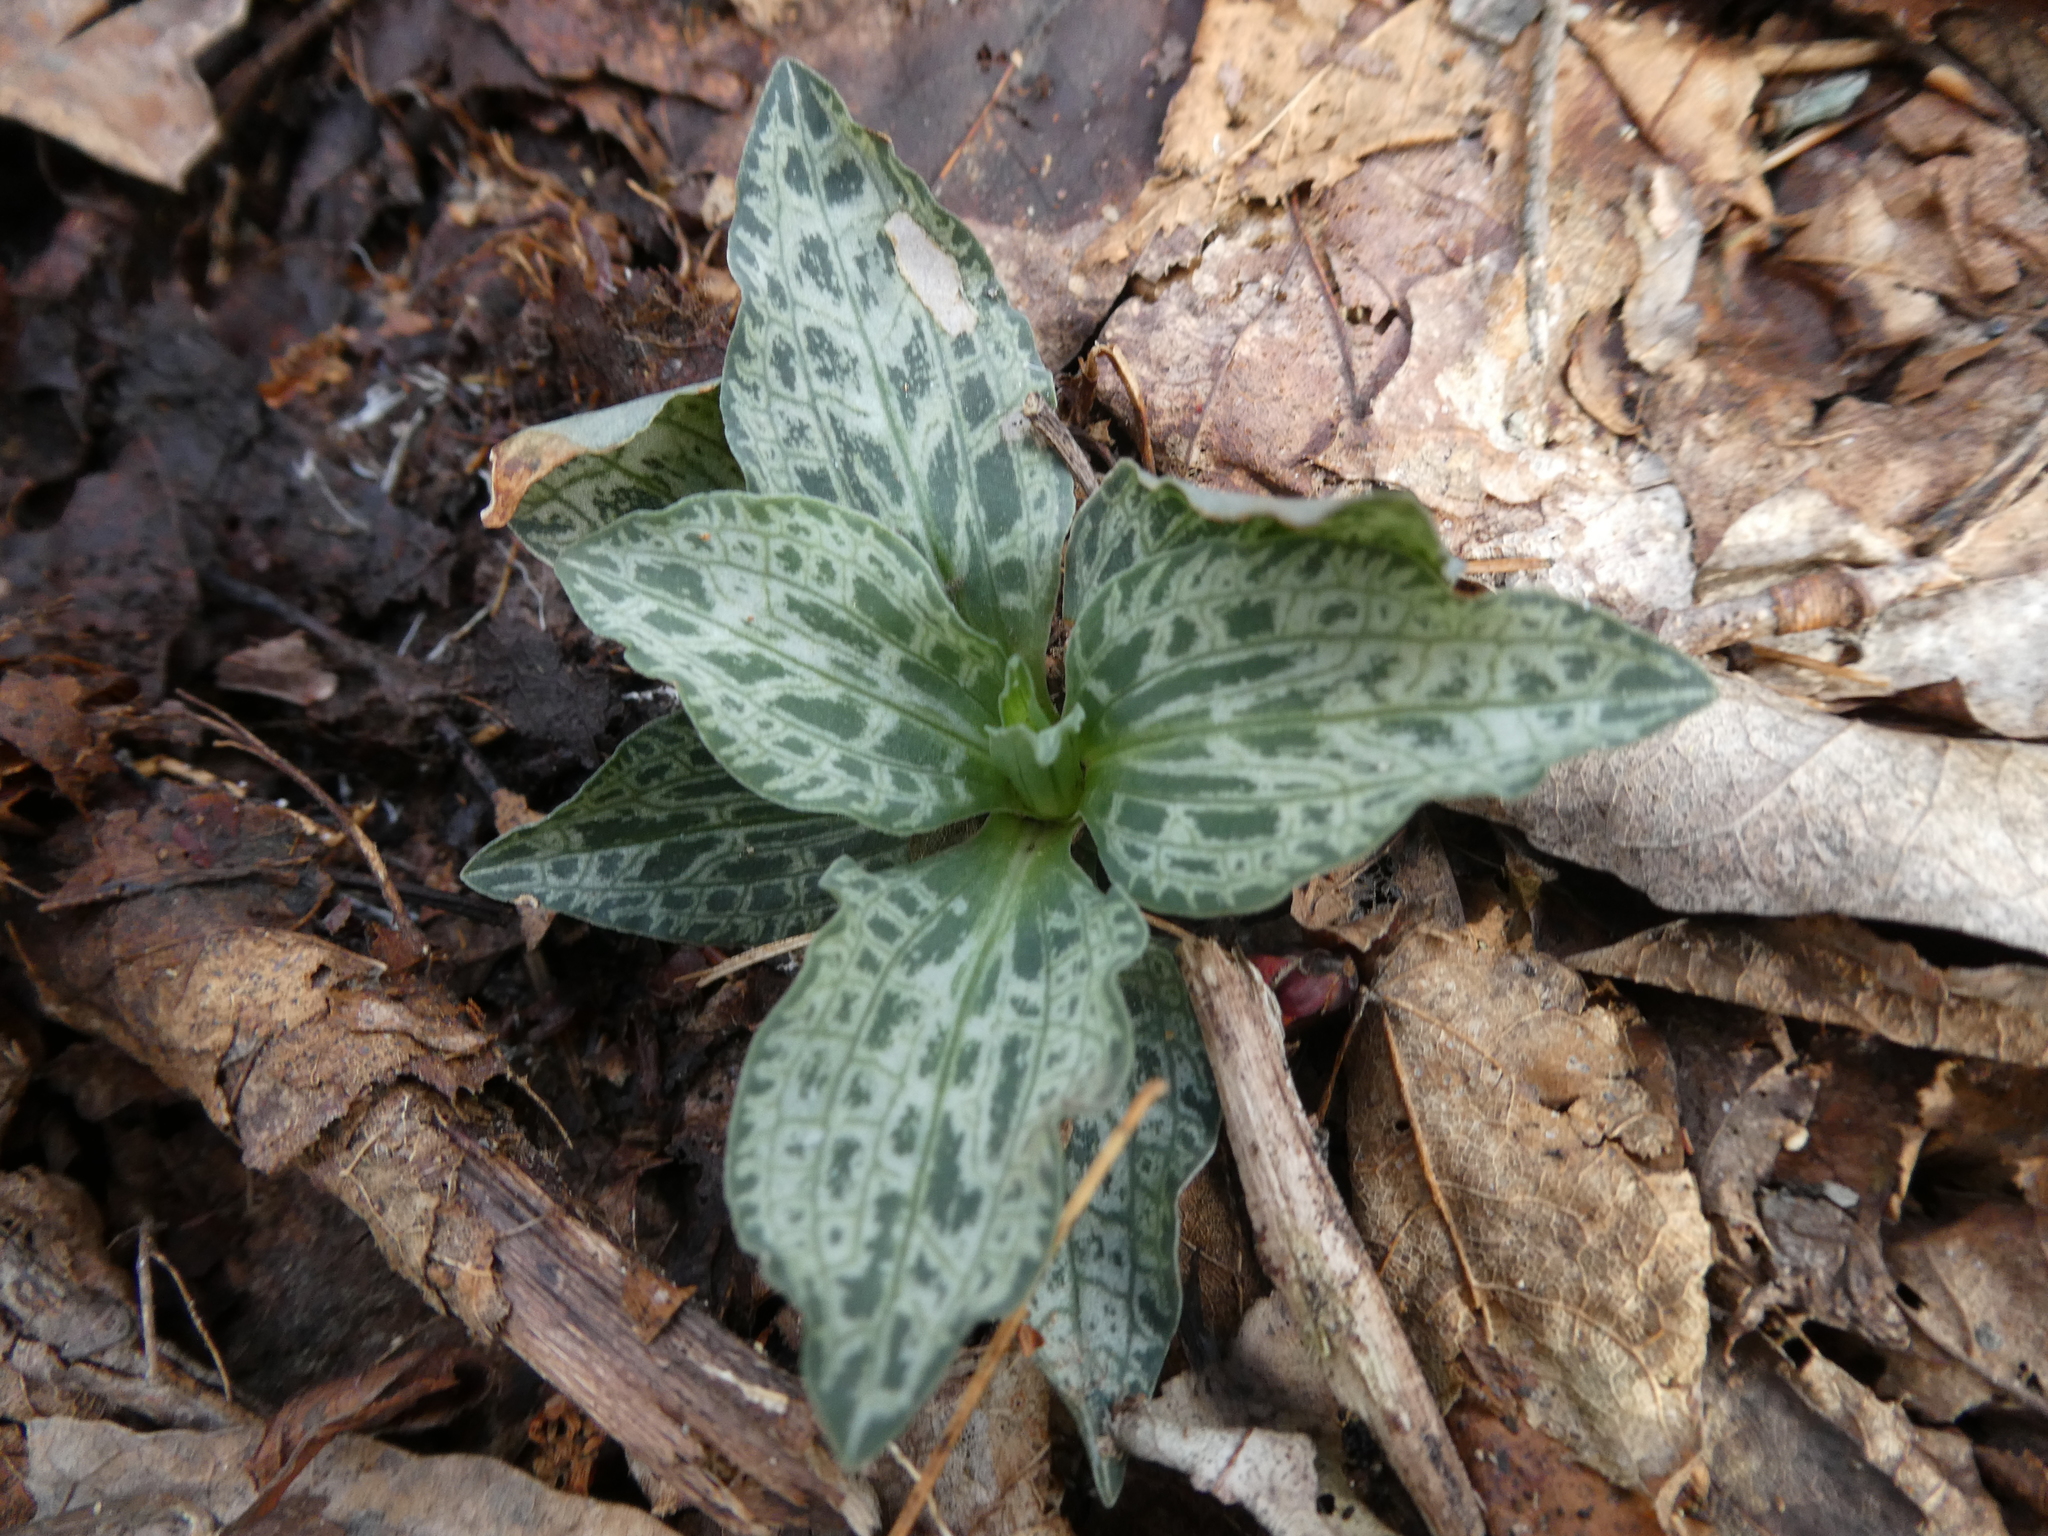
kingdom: Plantae
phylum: Tracheophyta
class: Liliopsida
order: Asparagales
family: Orchidaceae
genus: Goodyera
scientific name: Goodyera tesselata
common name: Checkered rattlesnake-plantain
